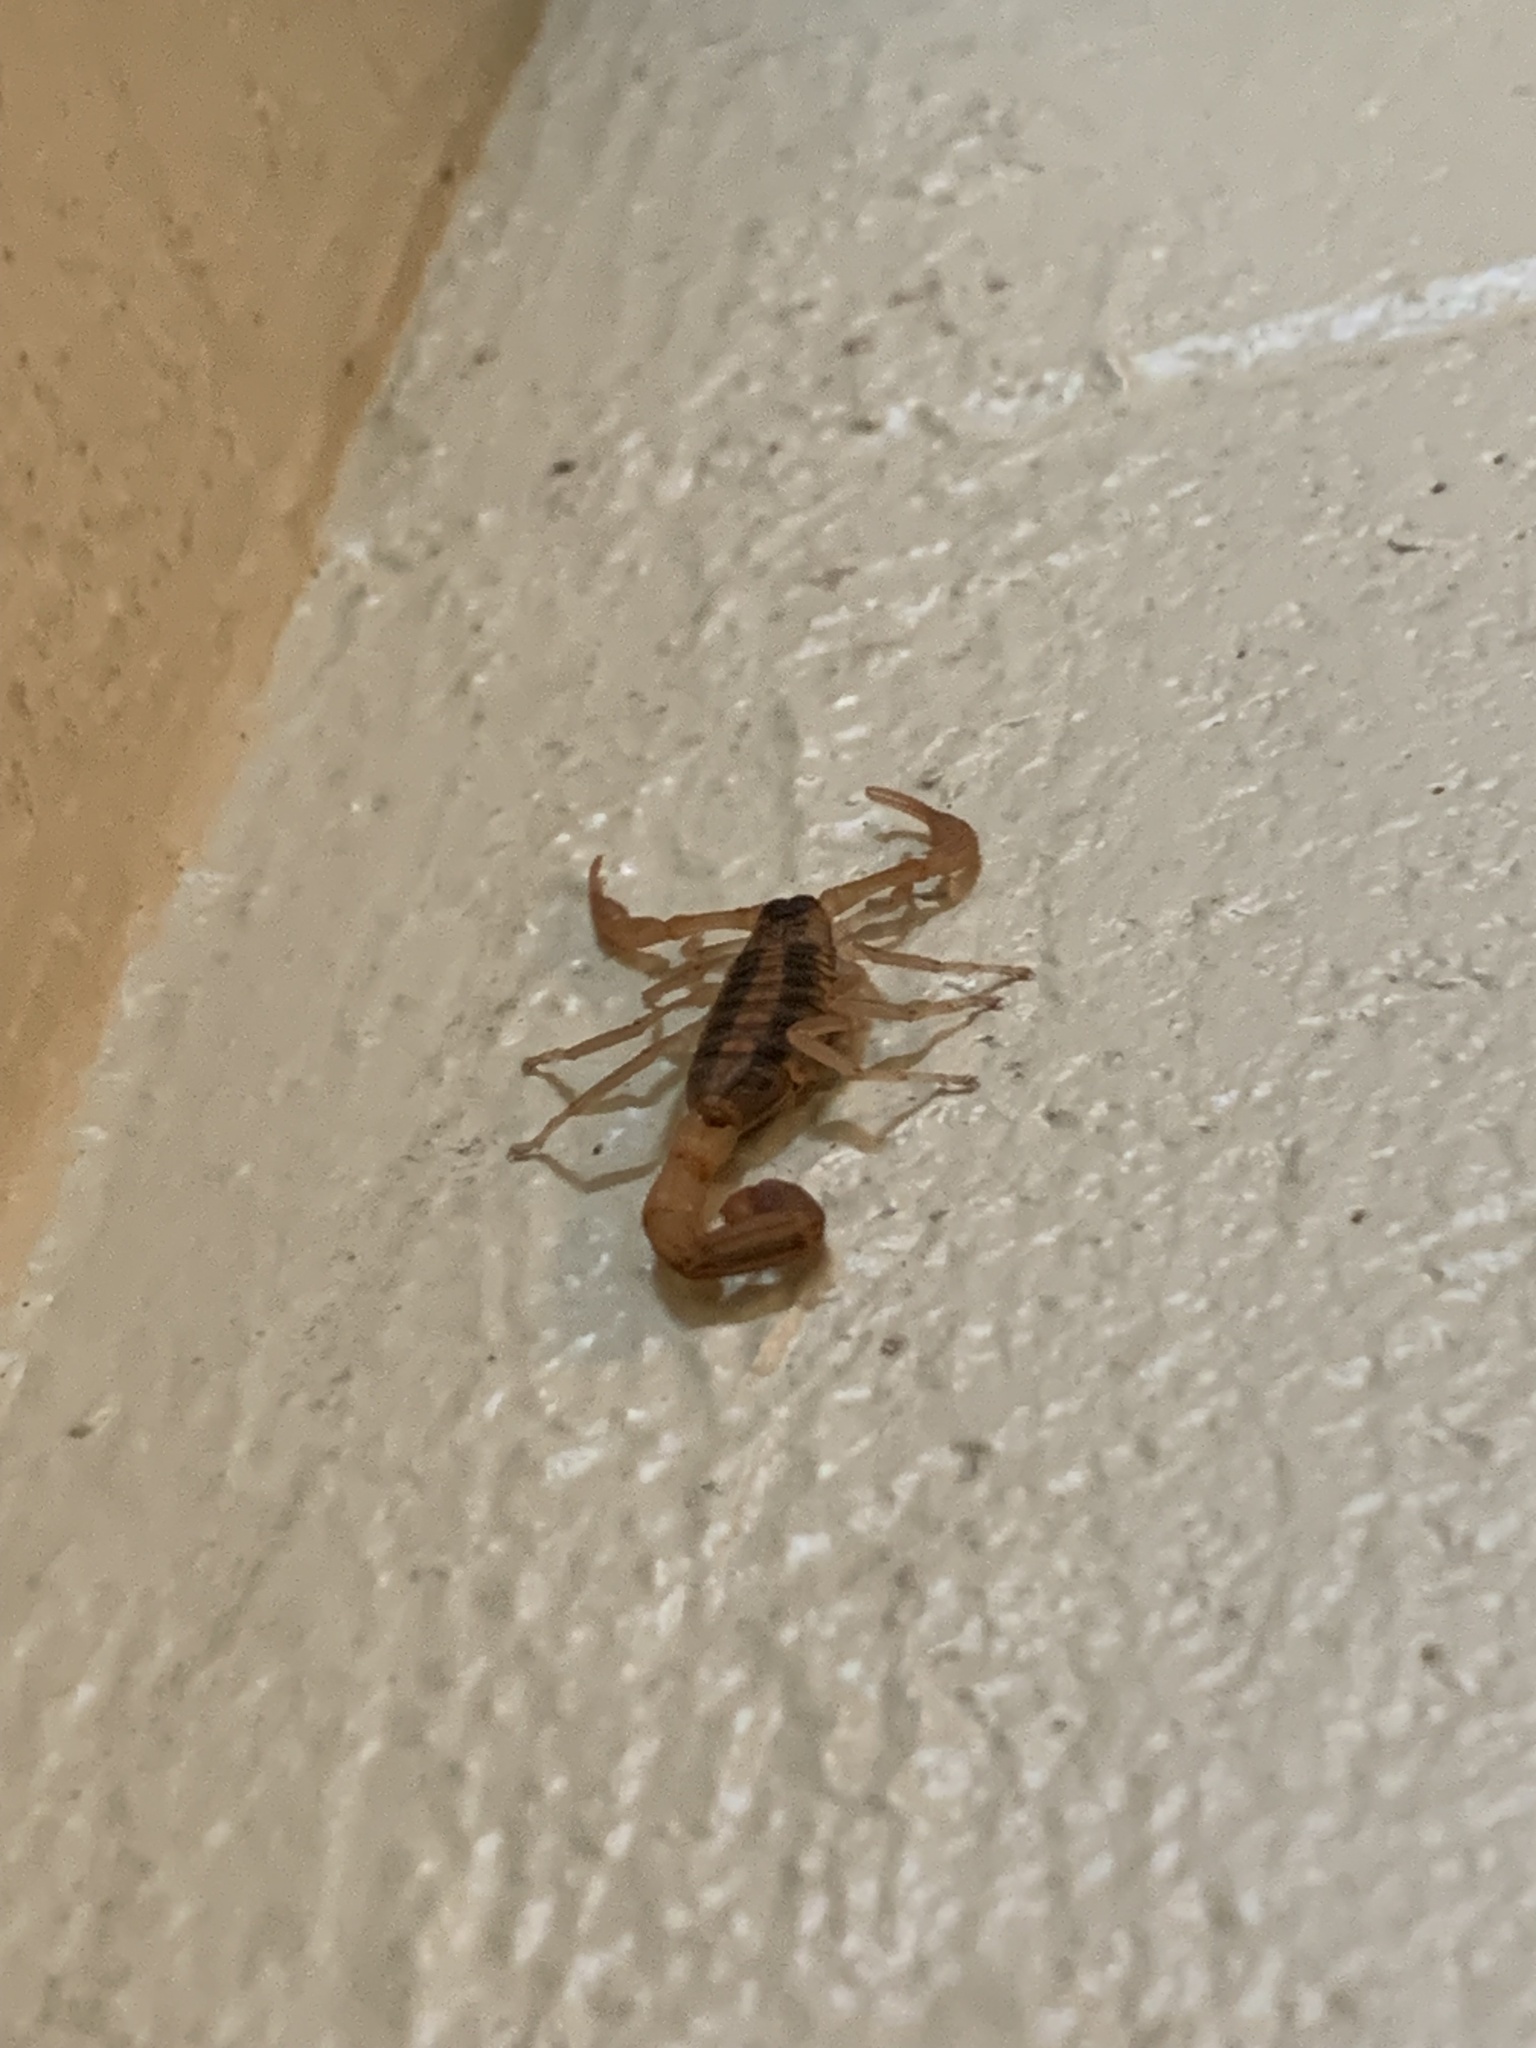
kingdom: Animalia
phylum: Arthropoda
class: Arachnida
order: Scorpiones
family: Buthidae
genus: Centruroides
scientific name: Centruroides vittatus
